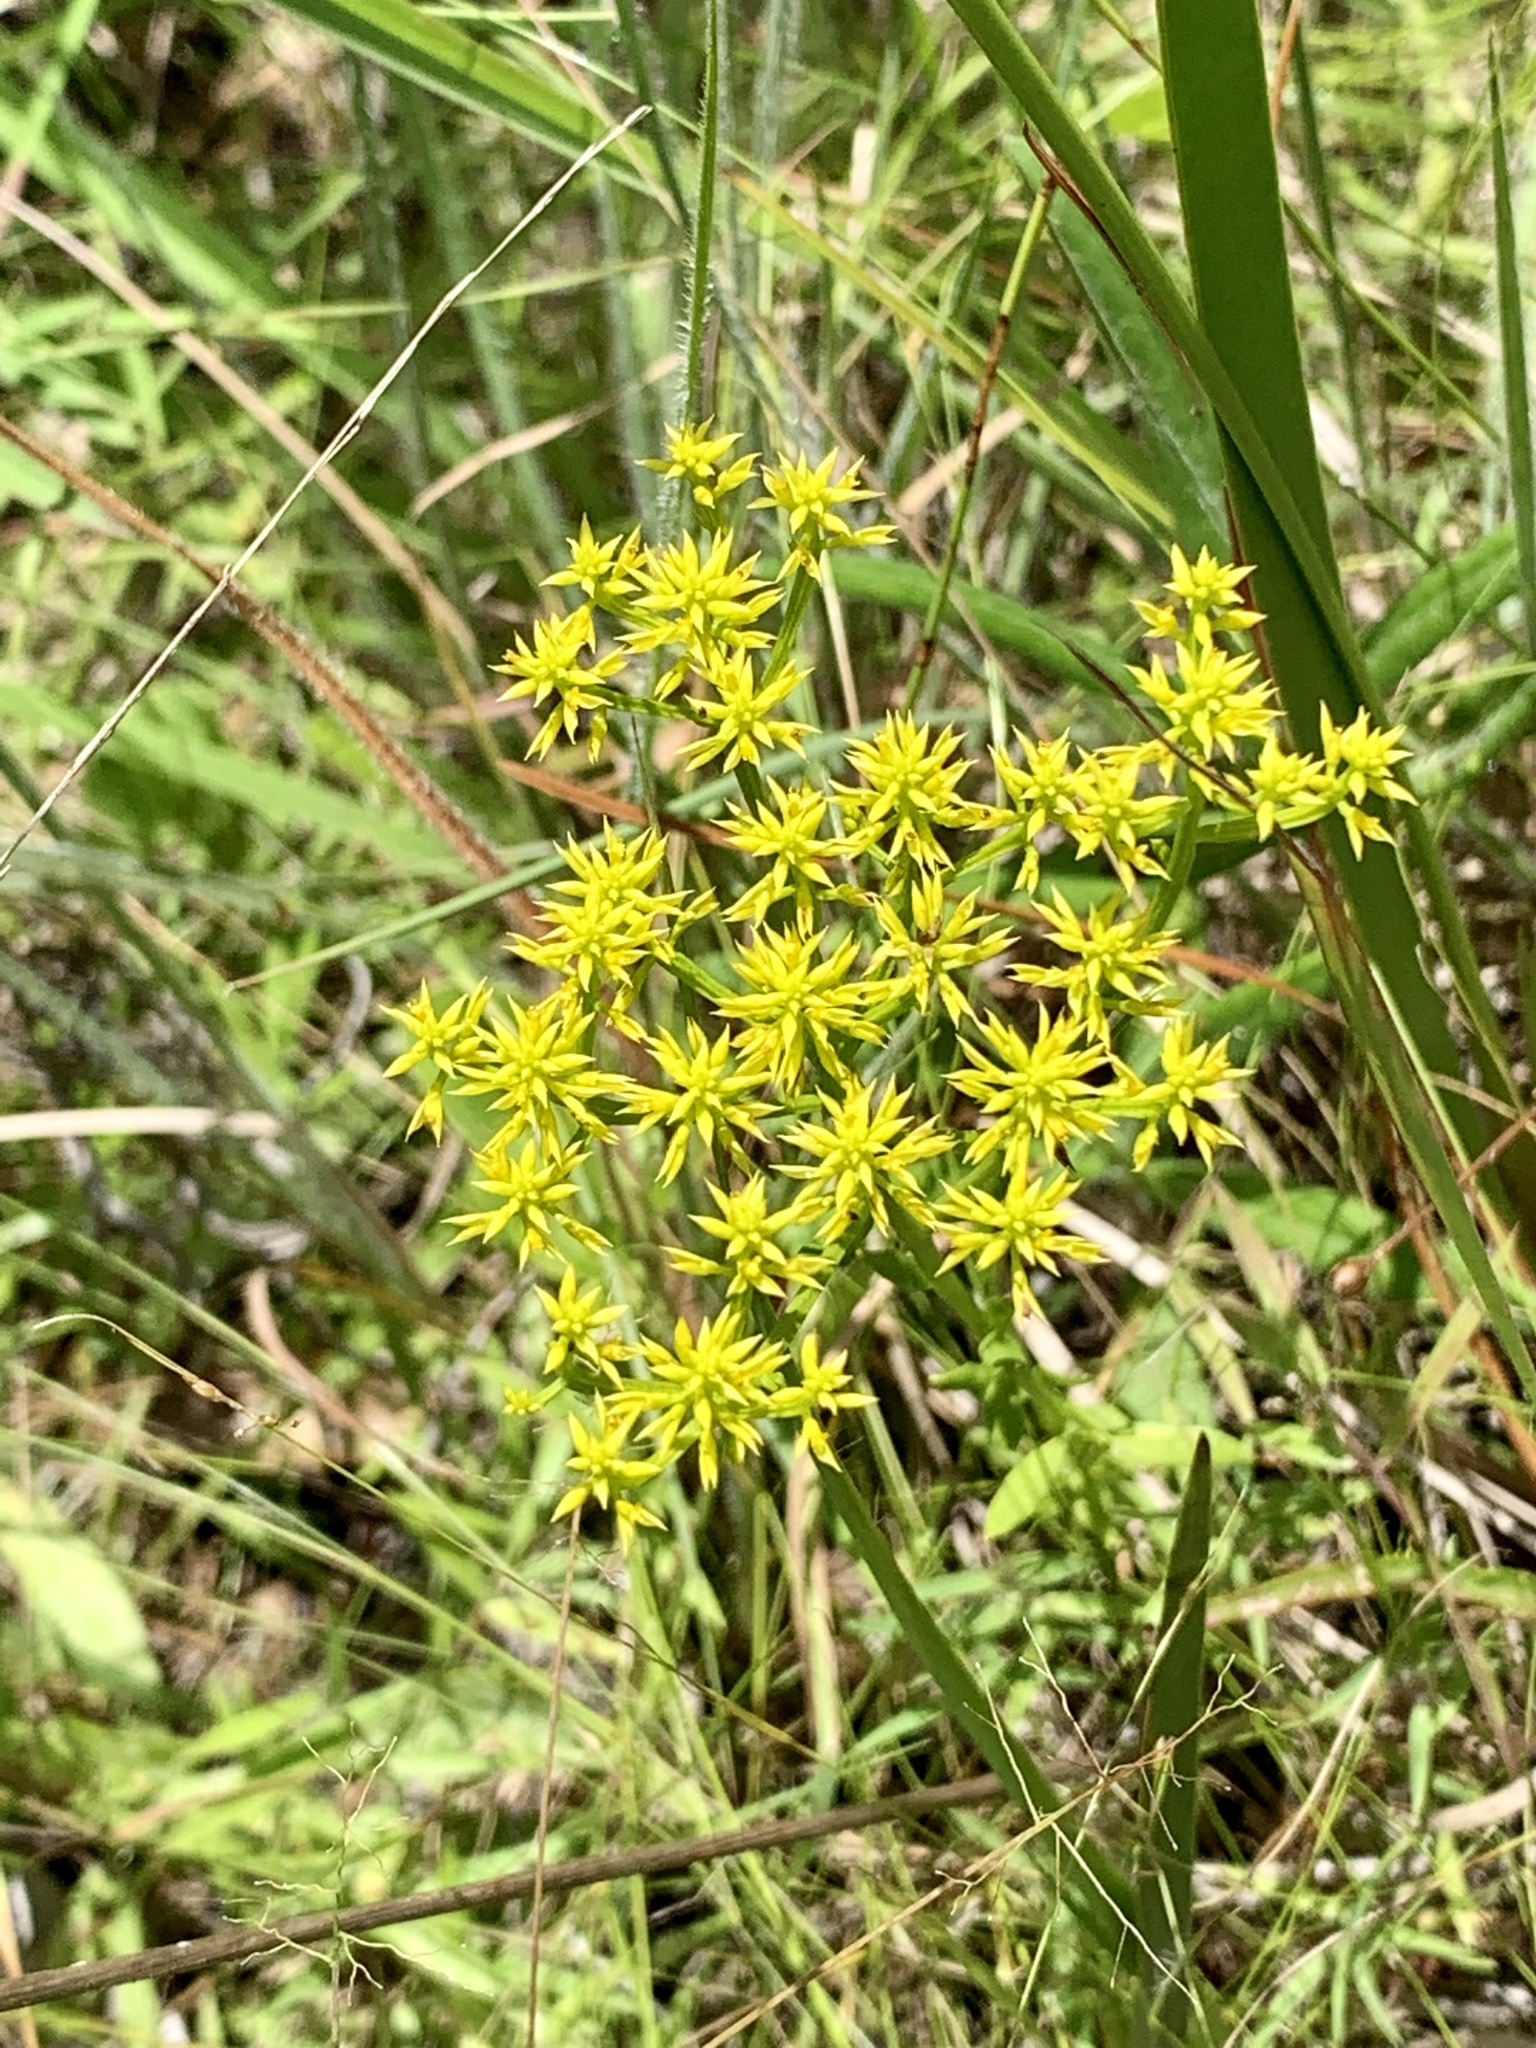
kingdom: Plantae
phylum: Tracheophyta
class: Magnoliopsida
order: Fabales
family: Polygalaceae
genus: Polygala
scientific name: Polygala ramosa
